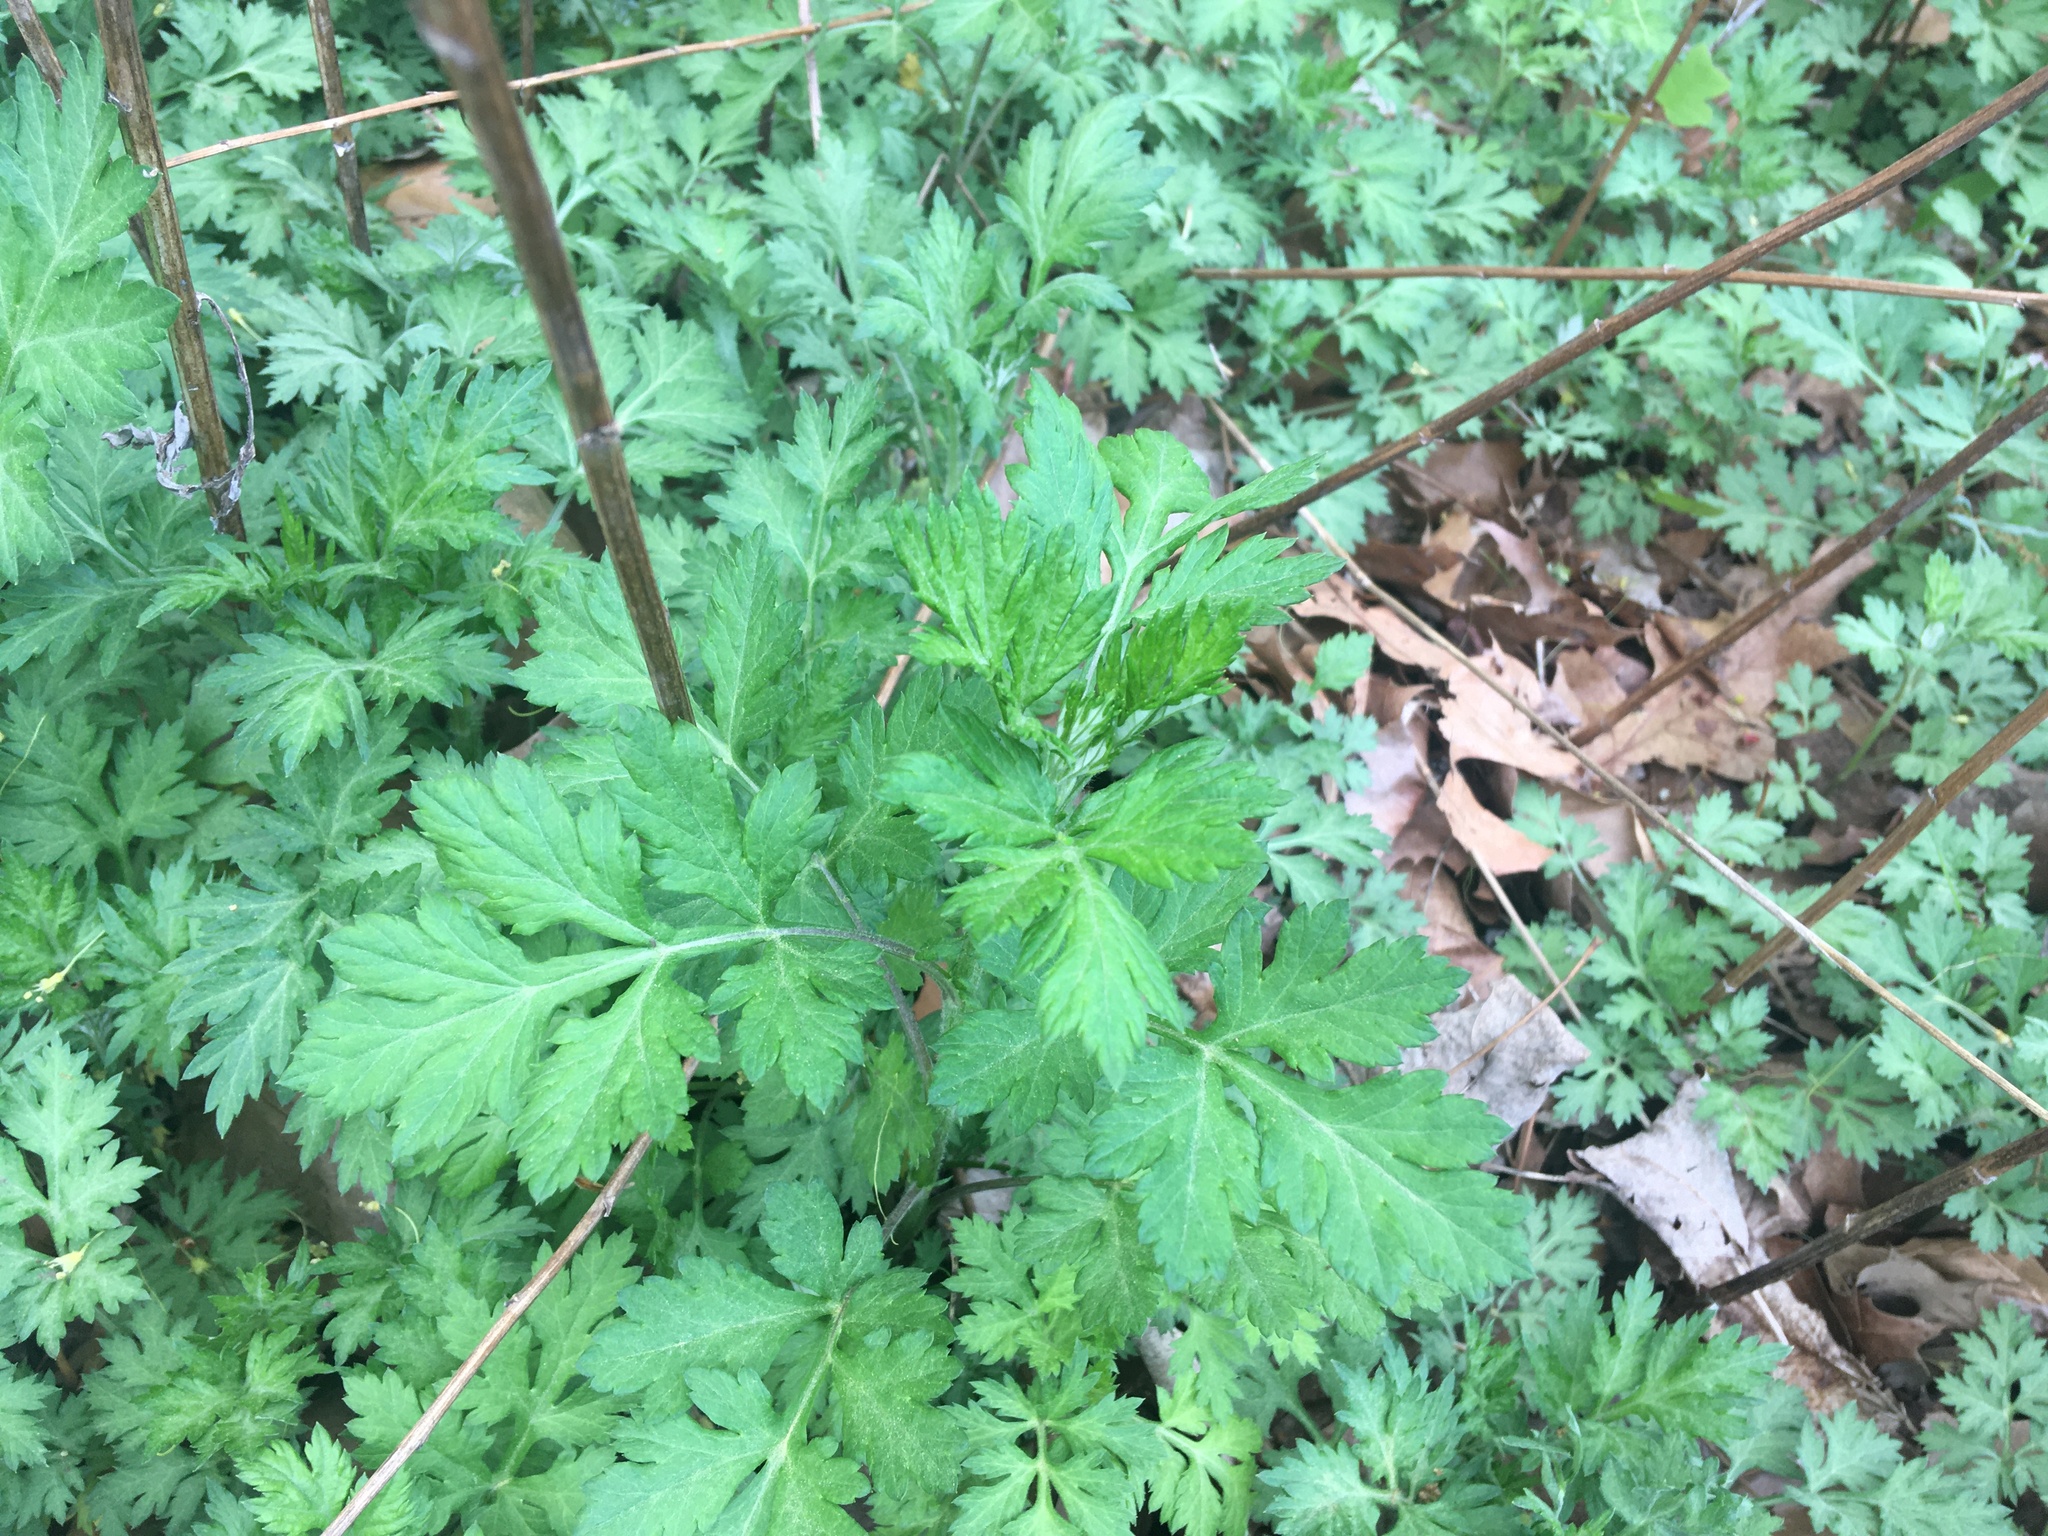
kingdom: Plantae
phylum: Tracheophyta
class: Magnoliopsida
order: Asterales
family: Asteraceae
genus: Artemisia
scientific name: Artemisia vulgaris
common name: Mugwort
